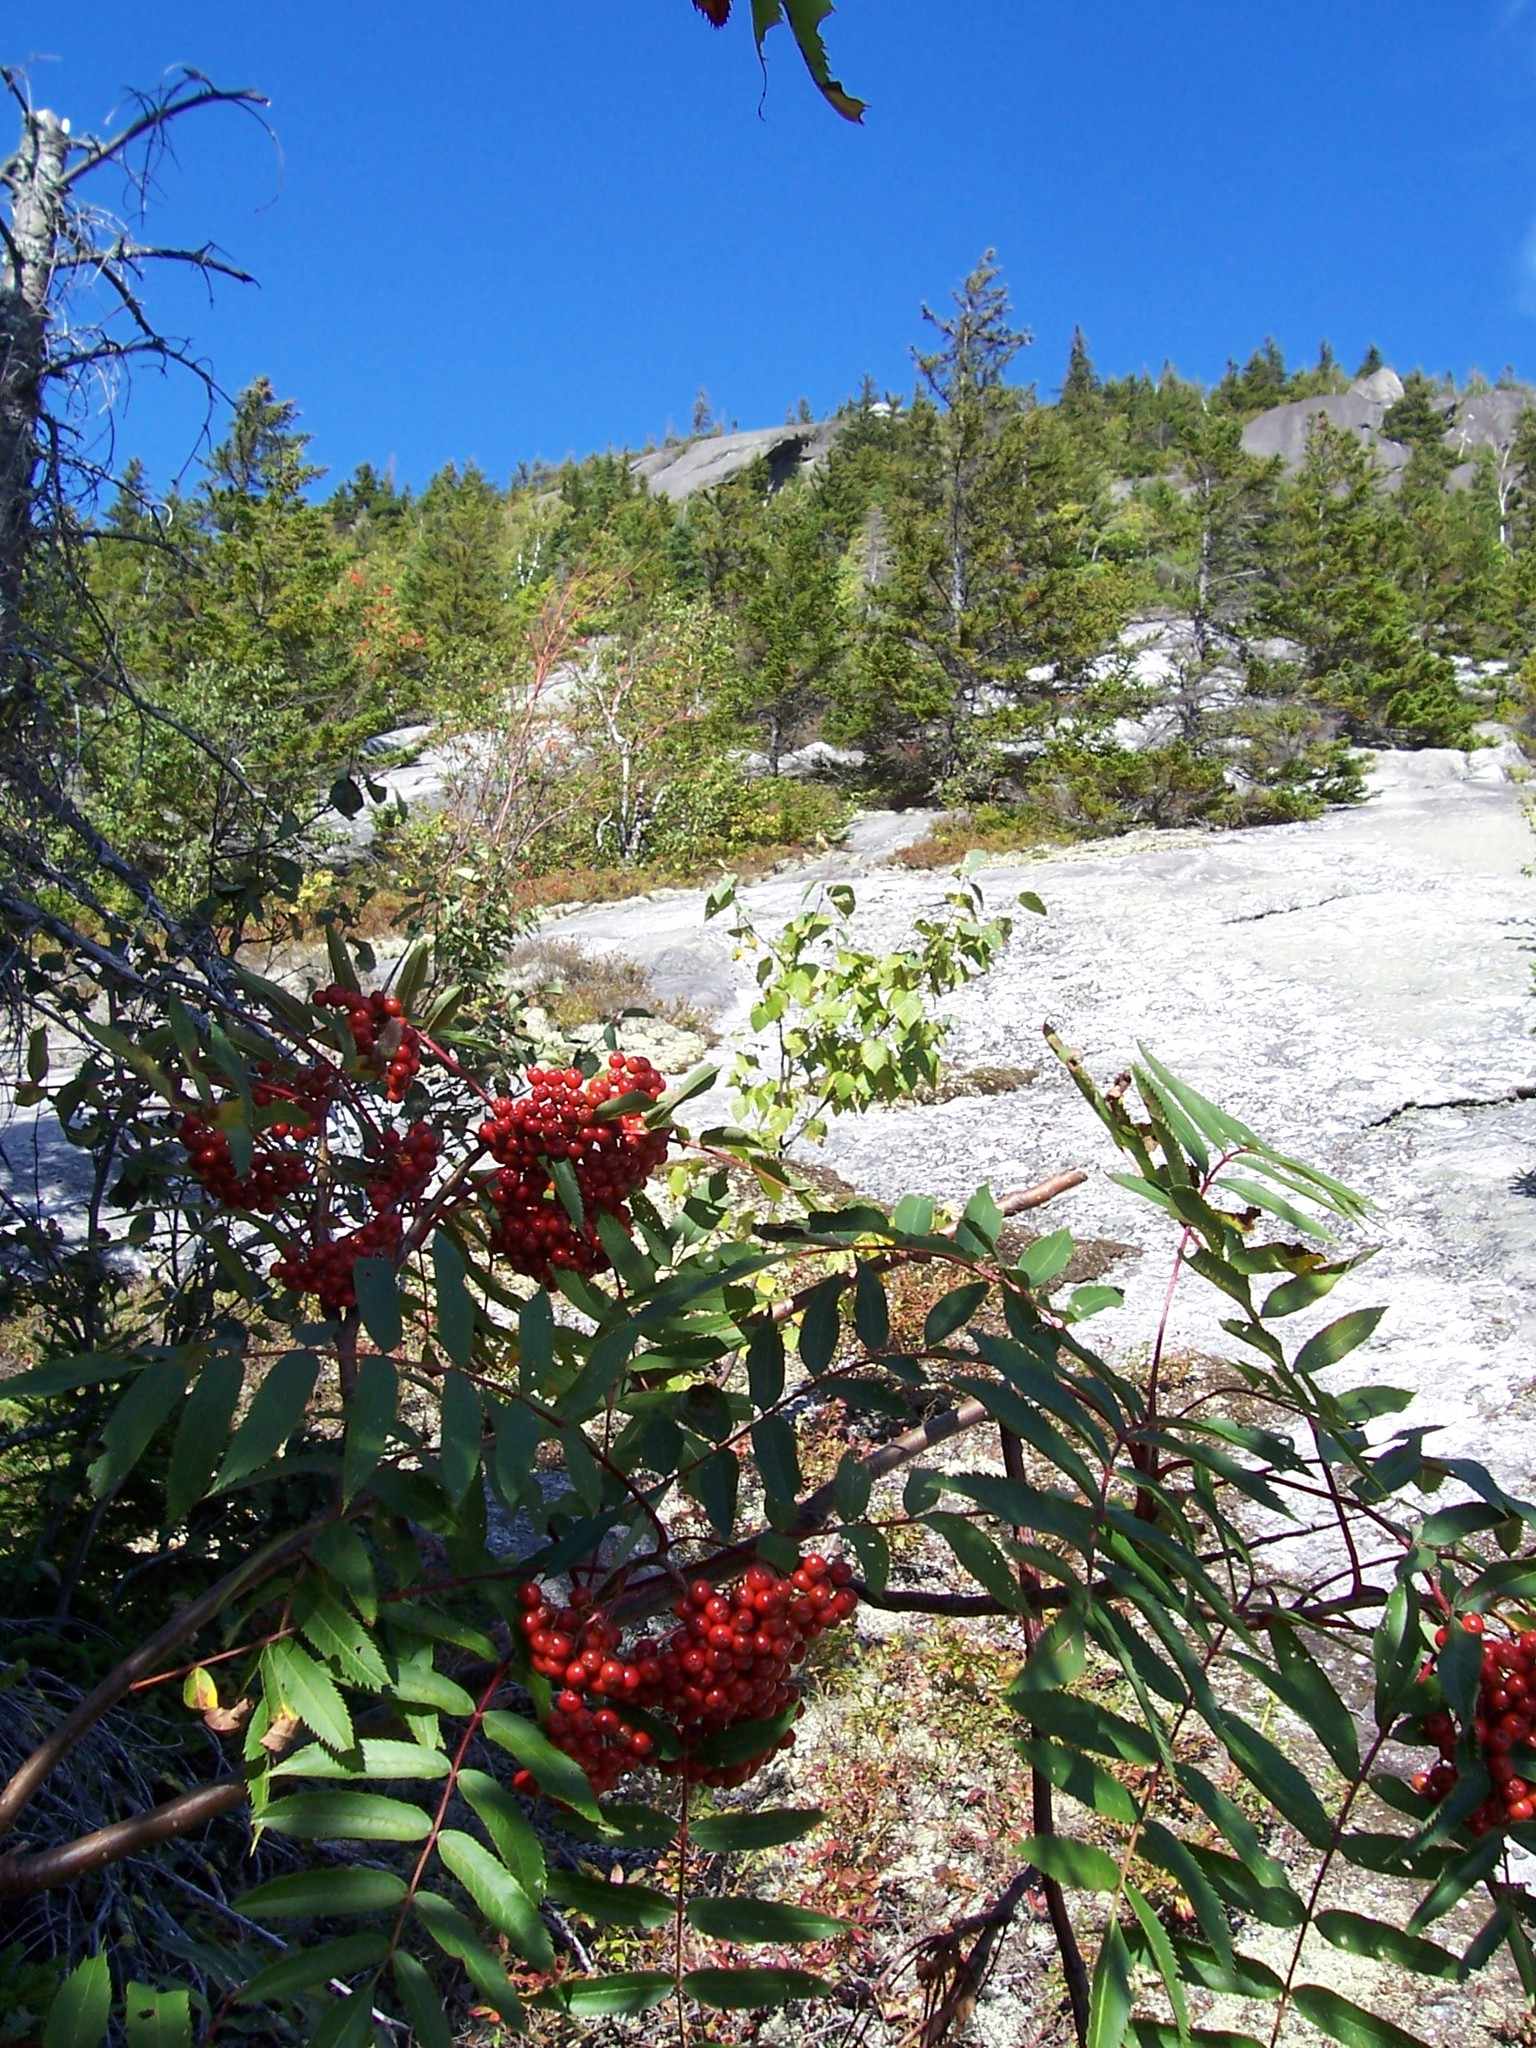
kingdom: Plantae
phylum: Tracheophyta
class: Magnoliopsida
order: Rosales
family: Rosaceae
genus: Sorbus
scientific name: Sorbus americana
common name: American mountain-ash
